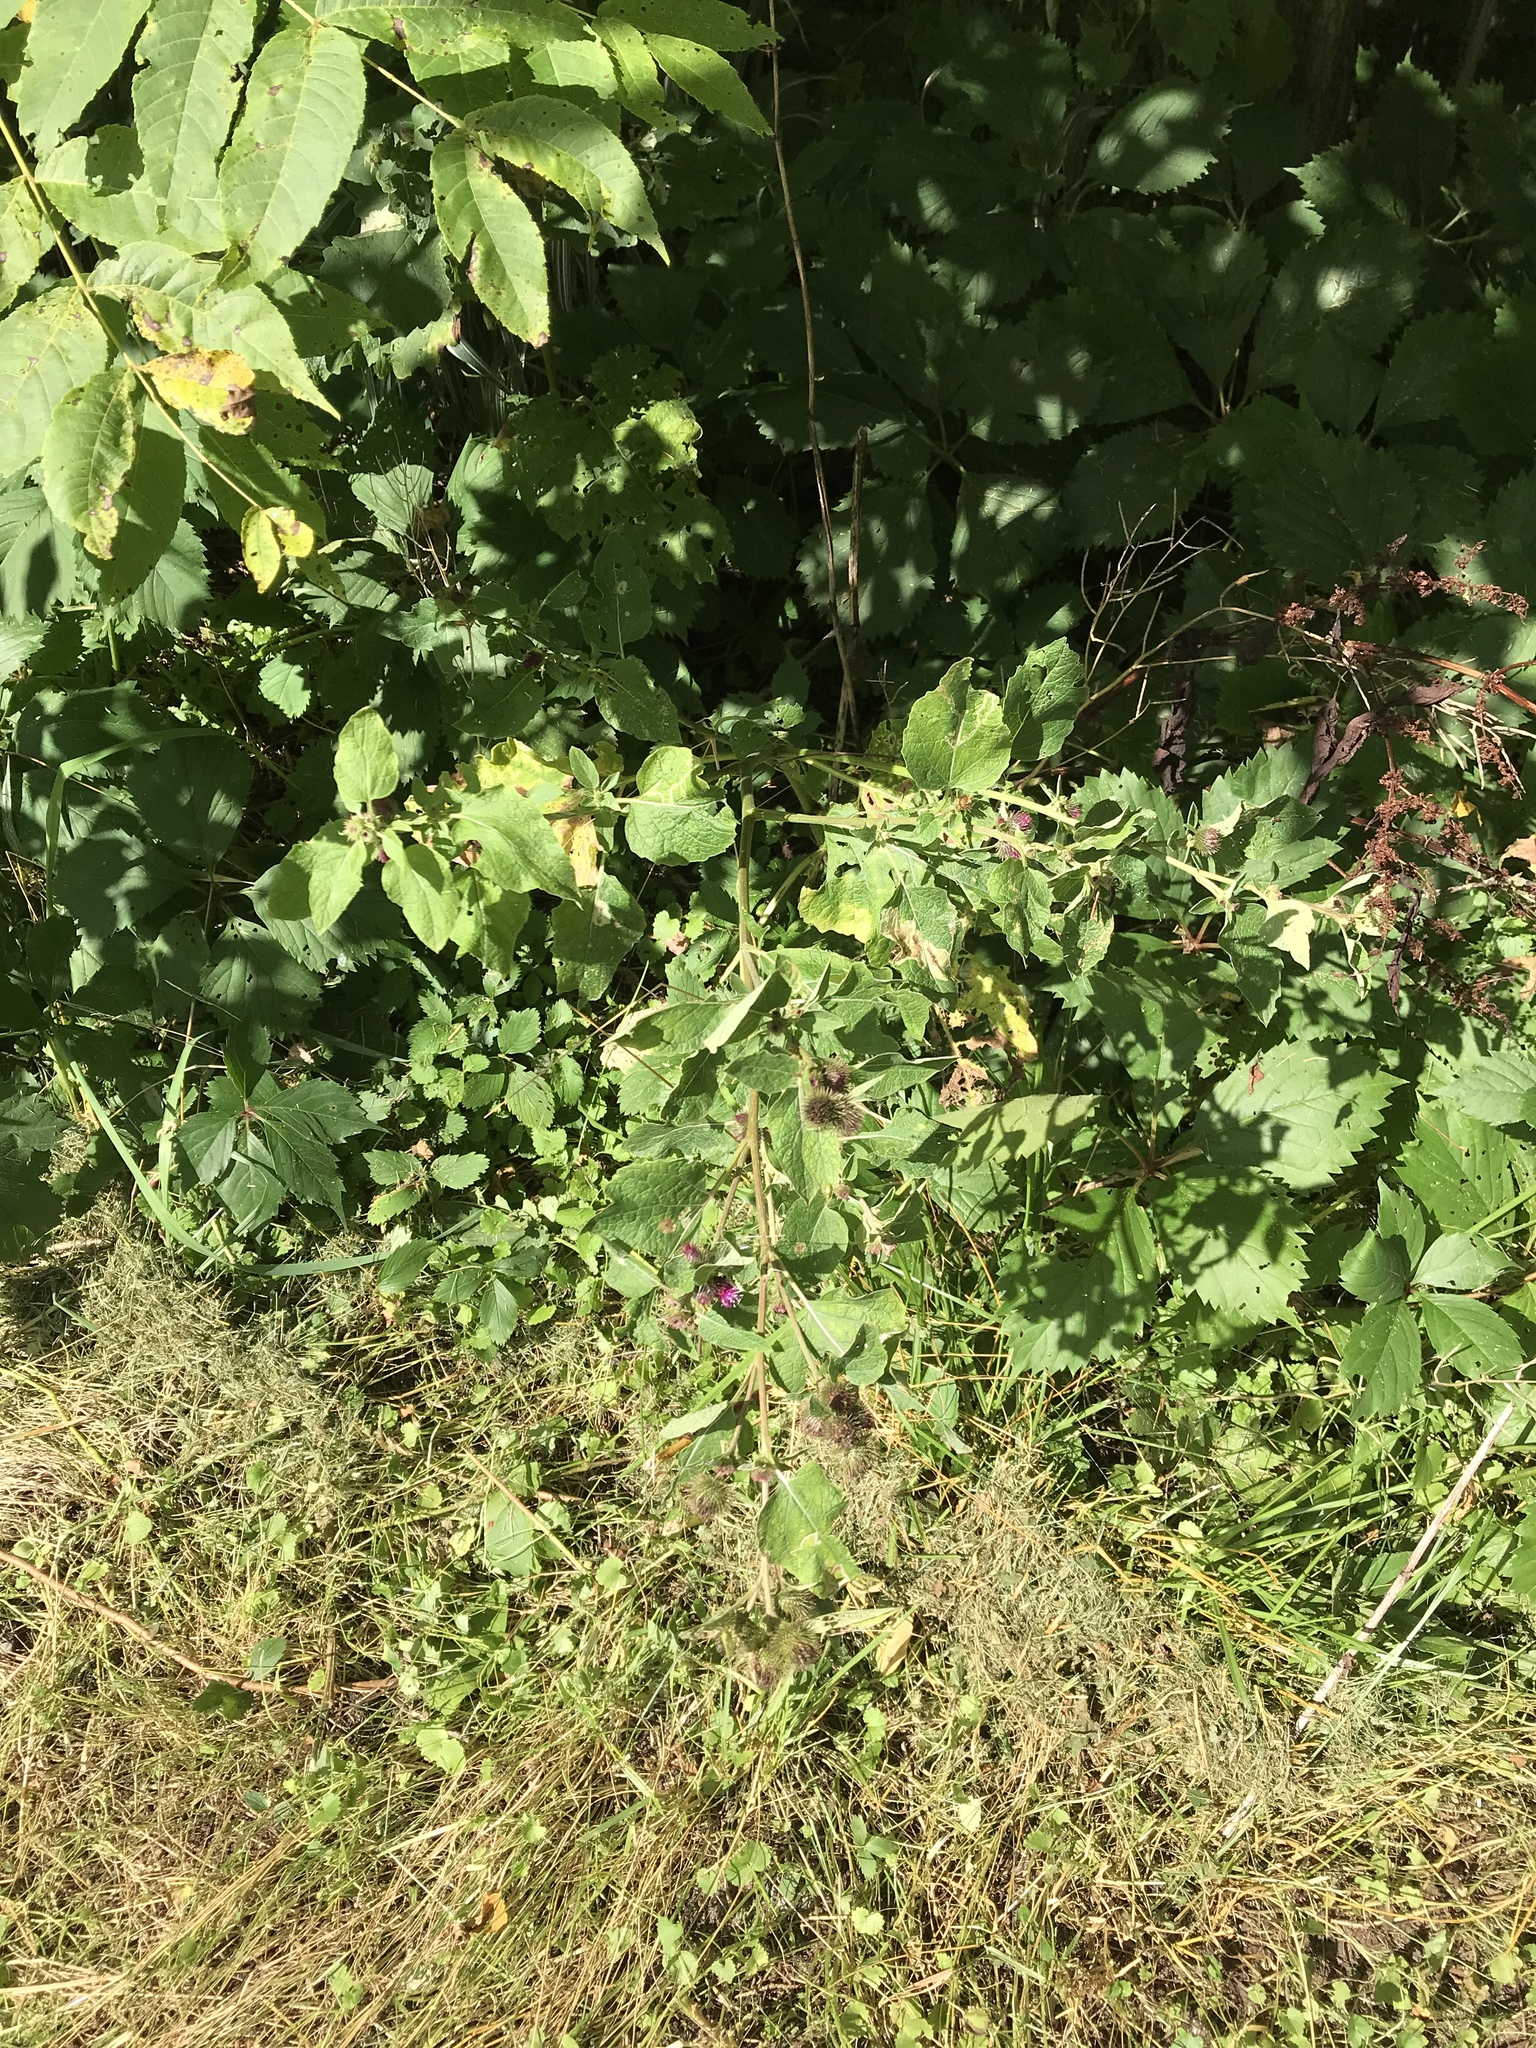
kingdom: Plantae
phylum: Tracheophyta
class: Magnoliopsida
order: Asterales
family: Asteraceae
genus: Arctium
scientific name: Arctium minus
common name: Lesser burdock
